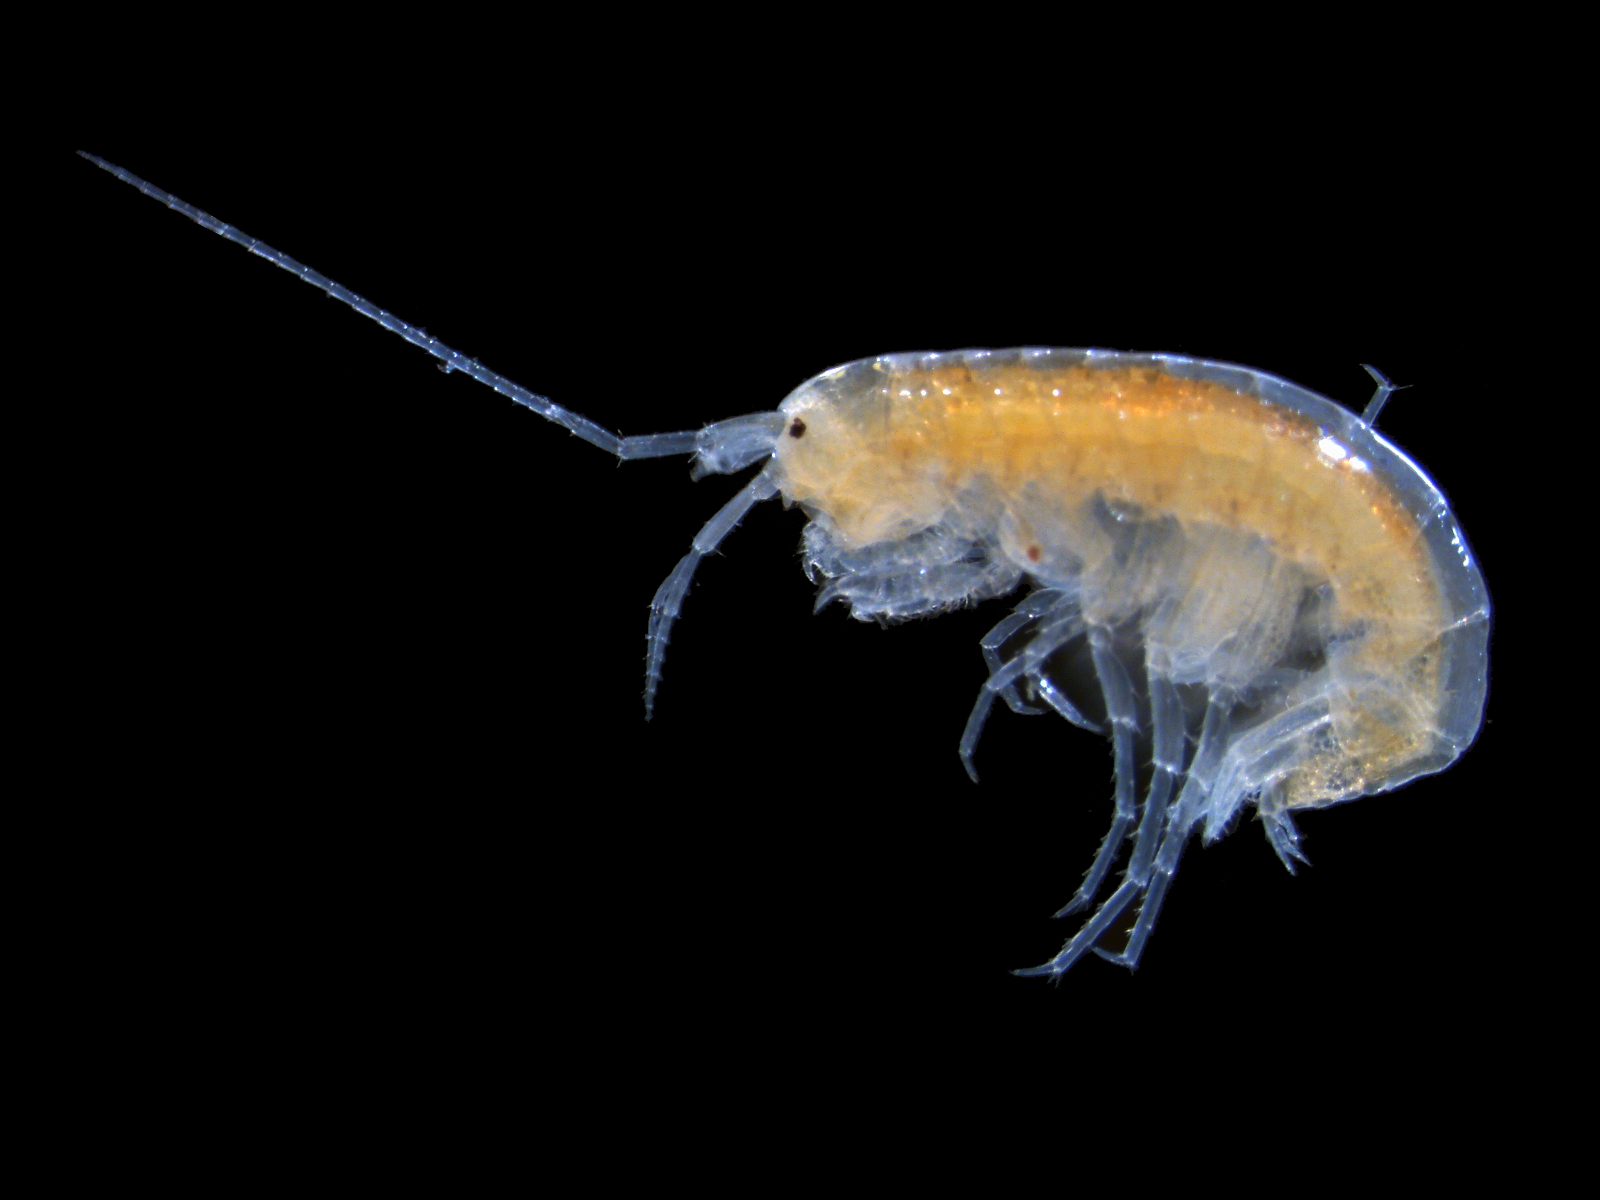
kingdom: Animalia
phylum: Arthropoda
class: Malacostraca
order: Amphipoda
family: Crangonyctidae
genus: Crangonyx
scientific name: Crangonyx manubrium
